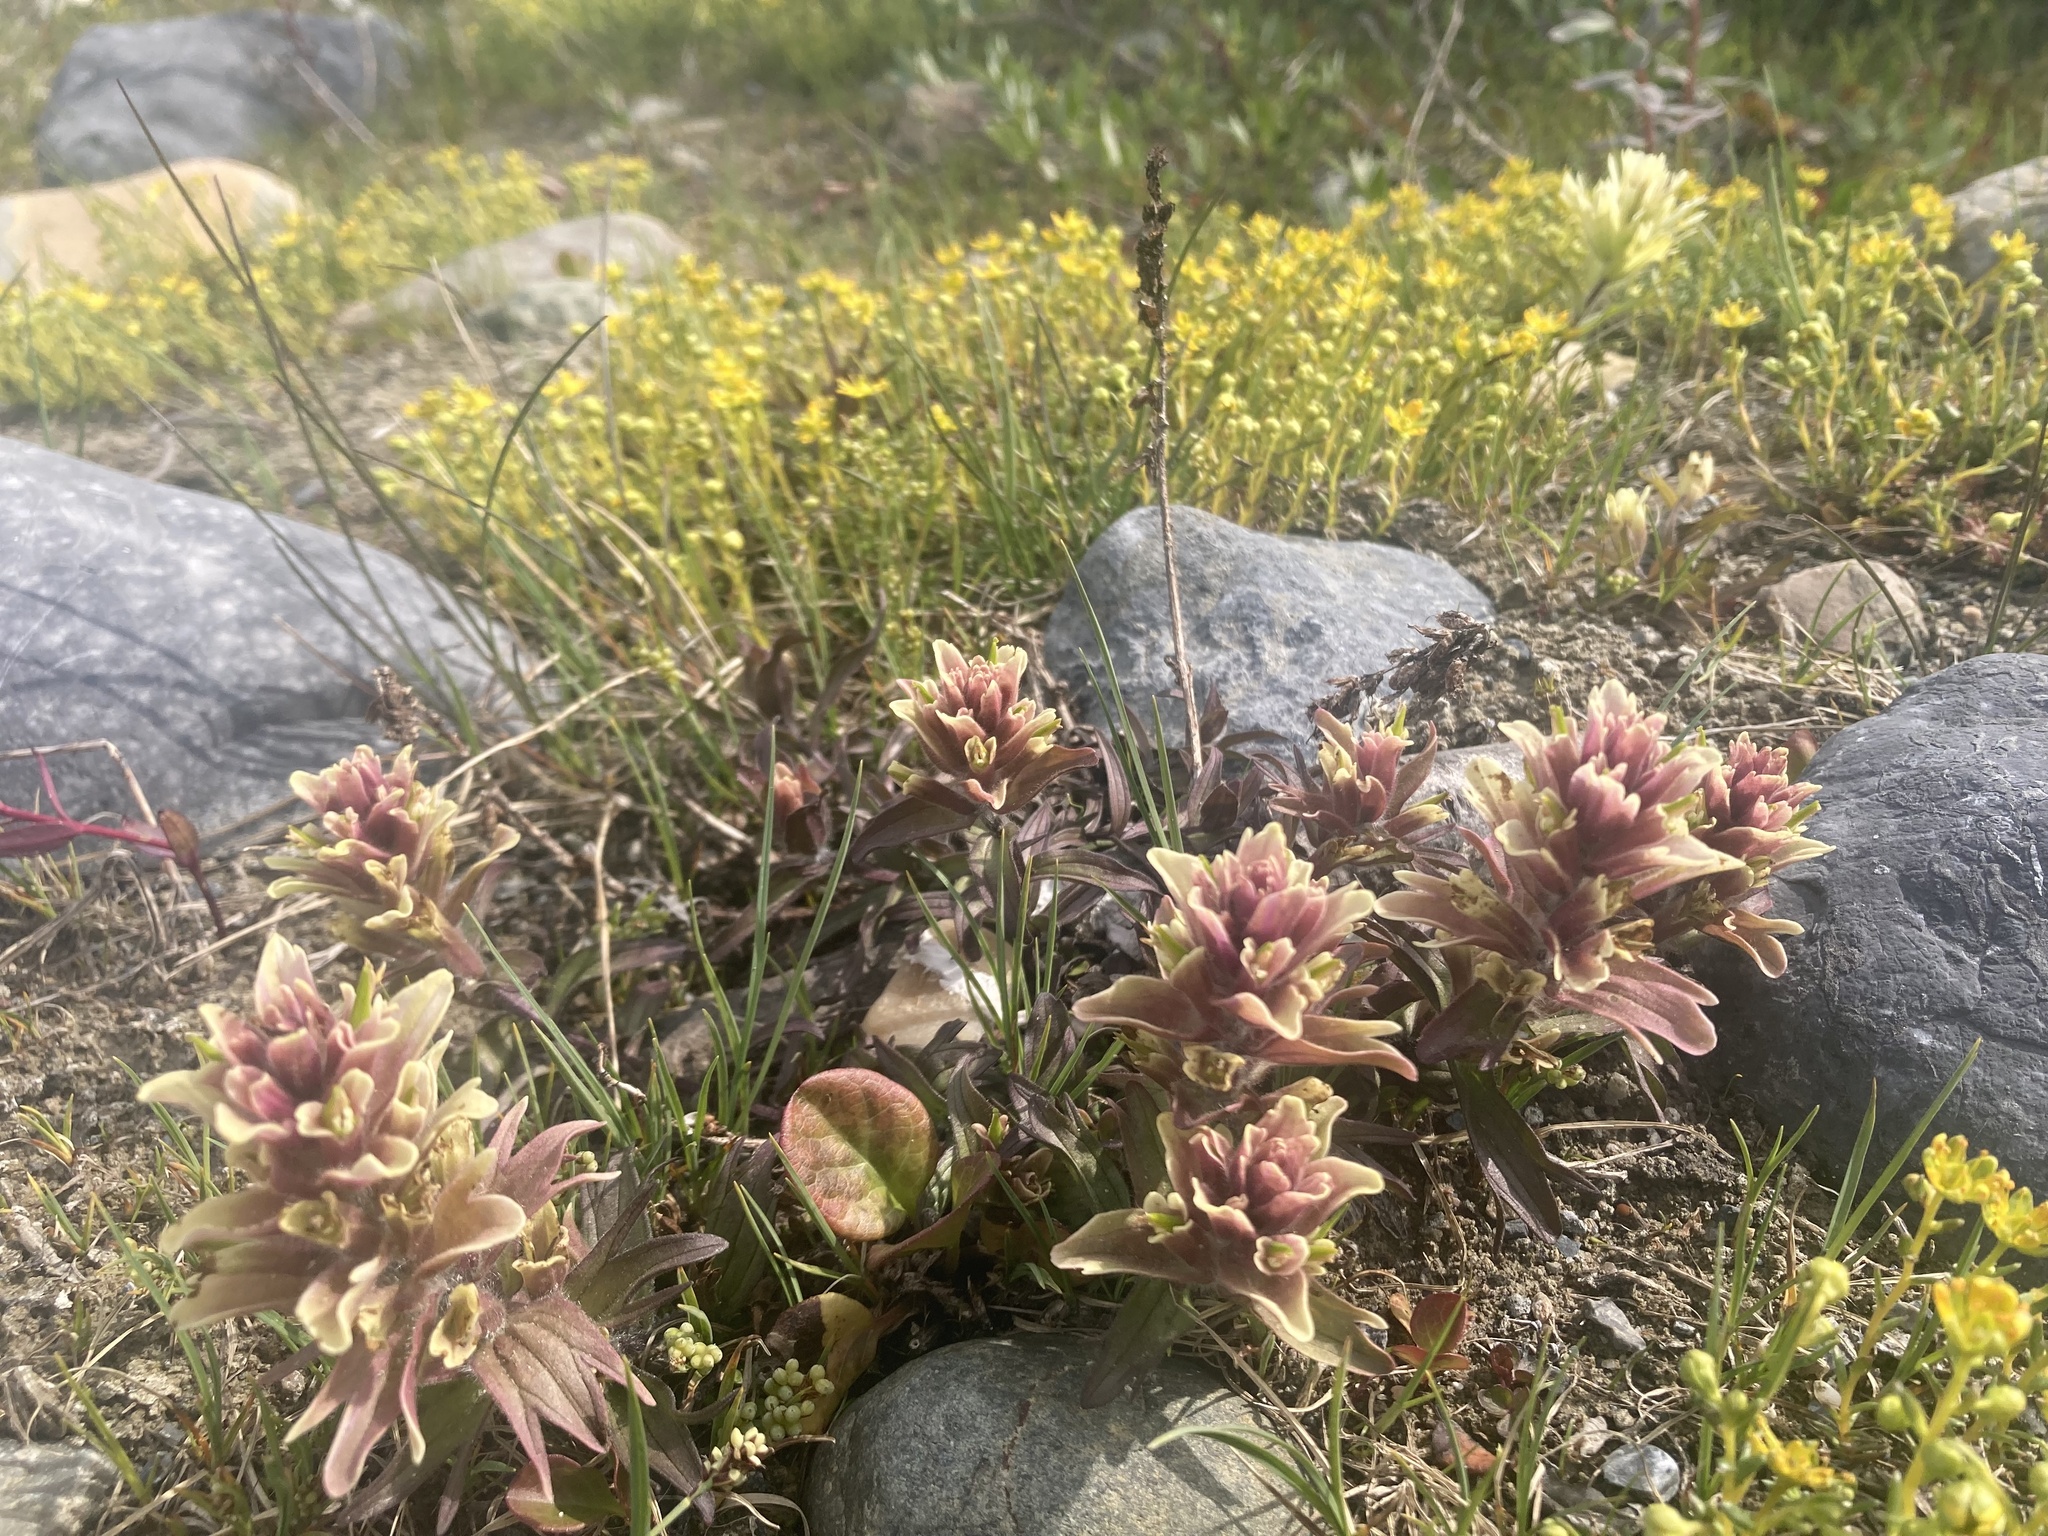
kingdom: Plantae
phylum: Tracheophyta
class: Magnoliopsida
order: Lamiales
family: Orobanchaceae
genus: Castilleja
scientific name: Castilleja occidentalis
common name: Western paintbrush
